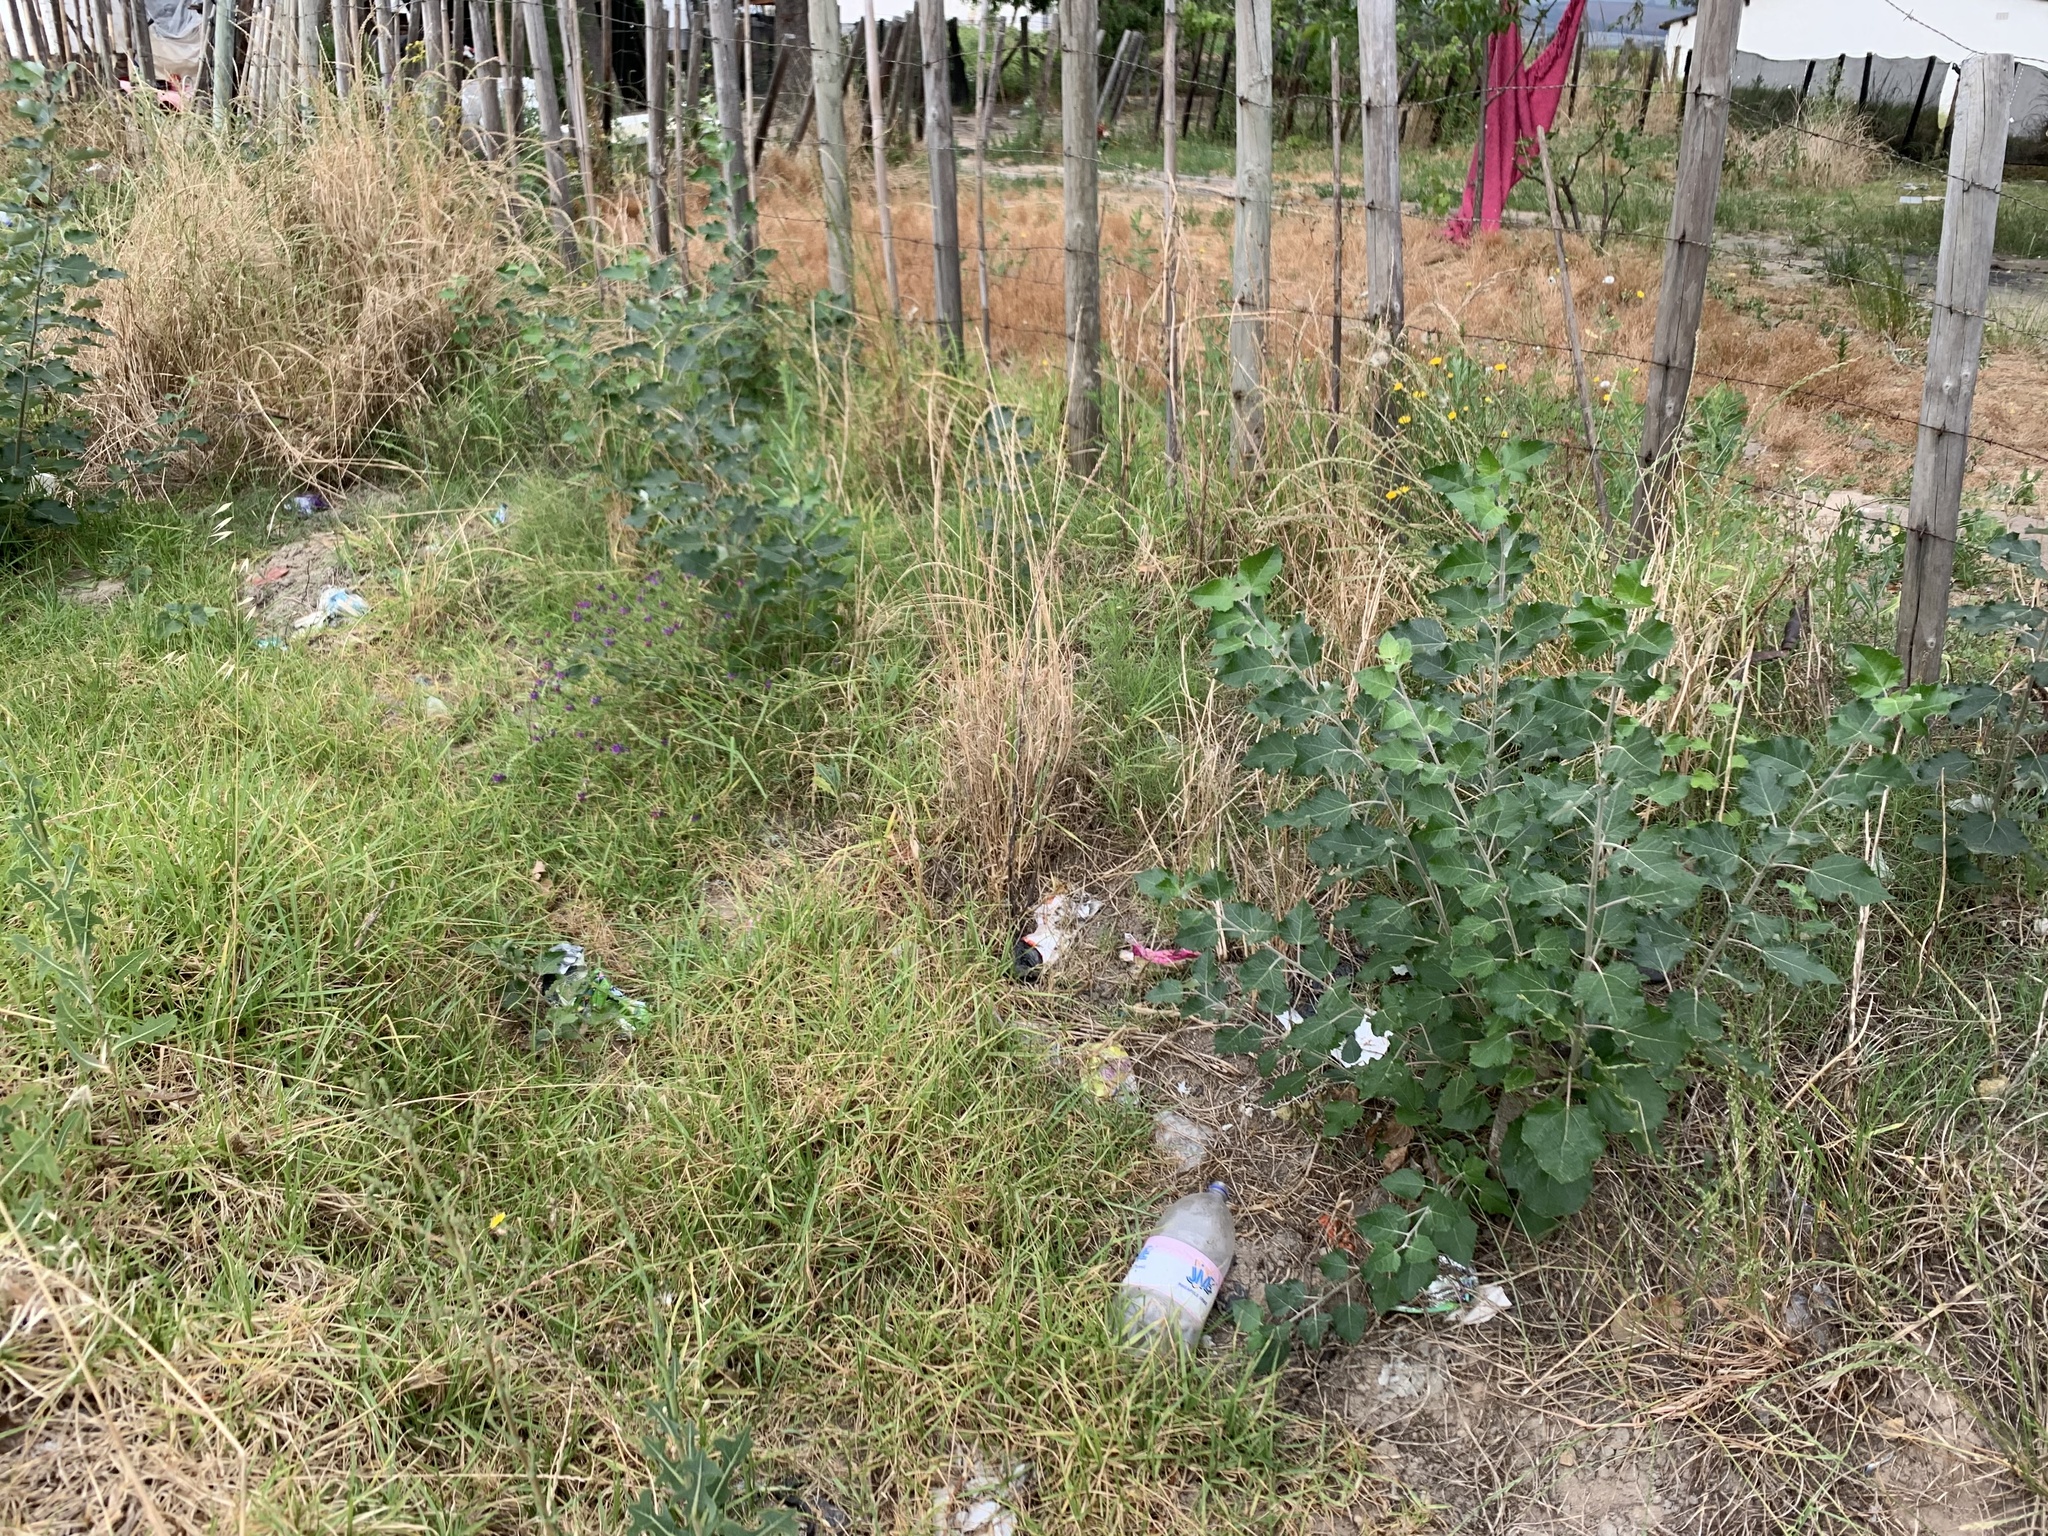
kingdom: Plantae
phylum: Tracheophyta
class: Magnoliopsida
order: Malpighiales
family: Salicaceae
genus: Populus
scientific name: Populus canescens
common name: Gray poplar
